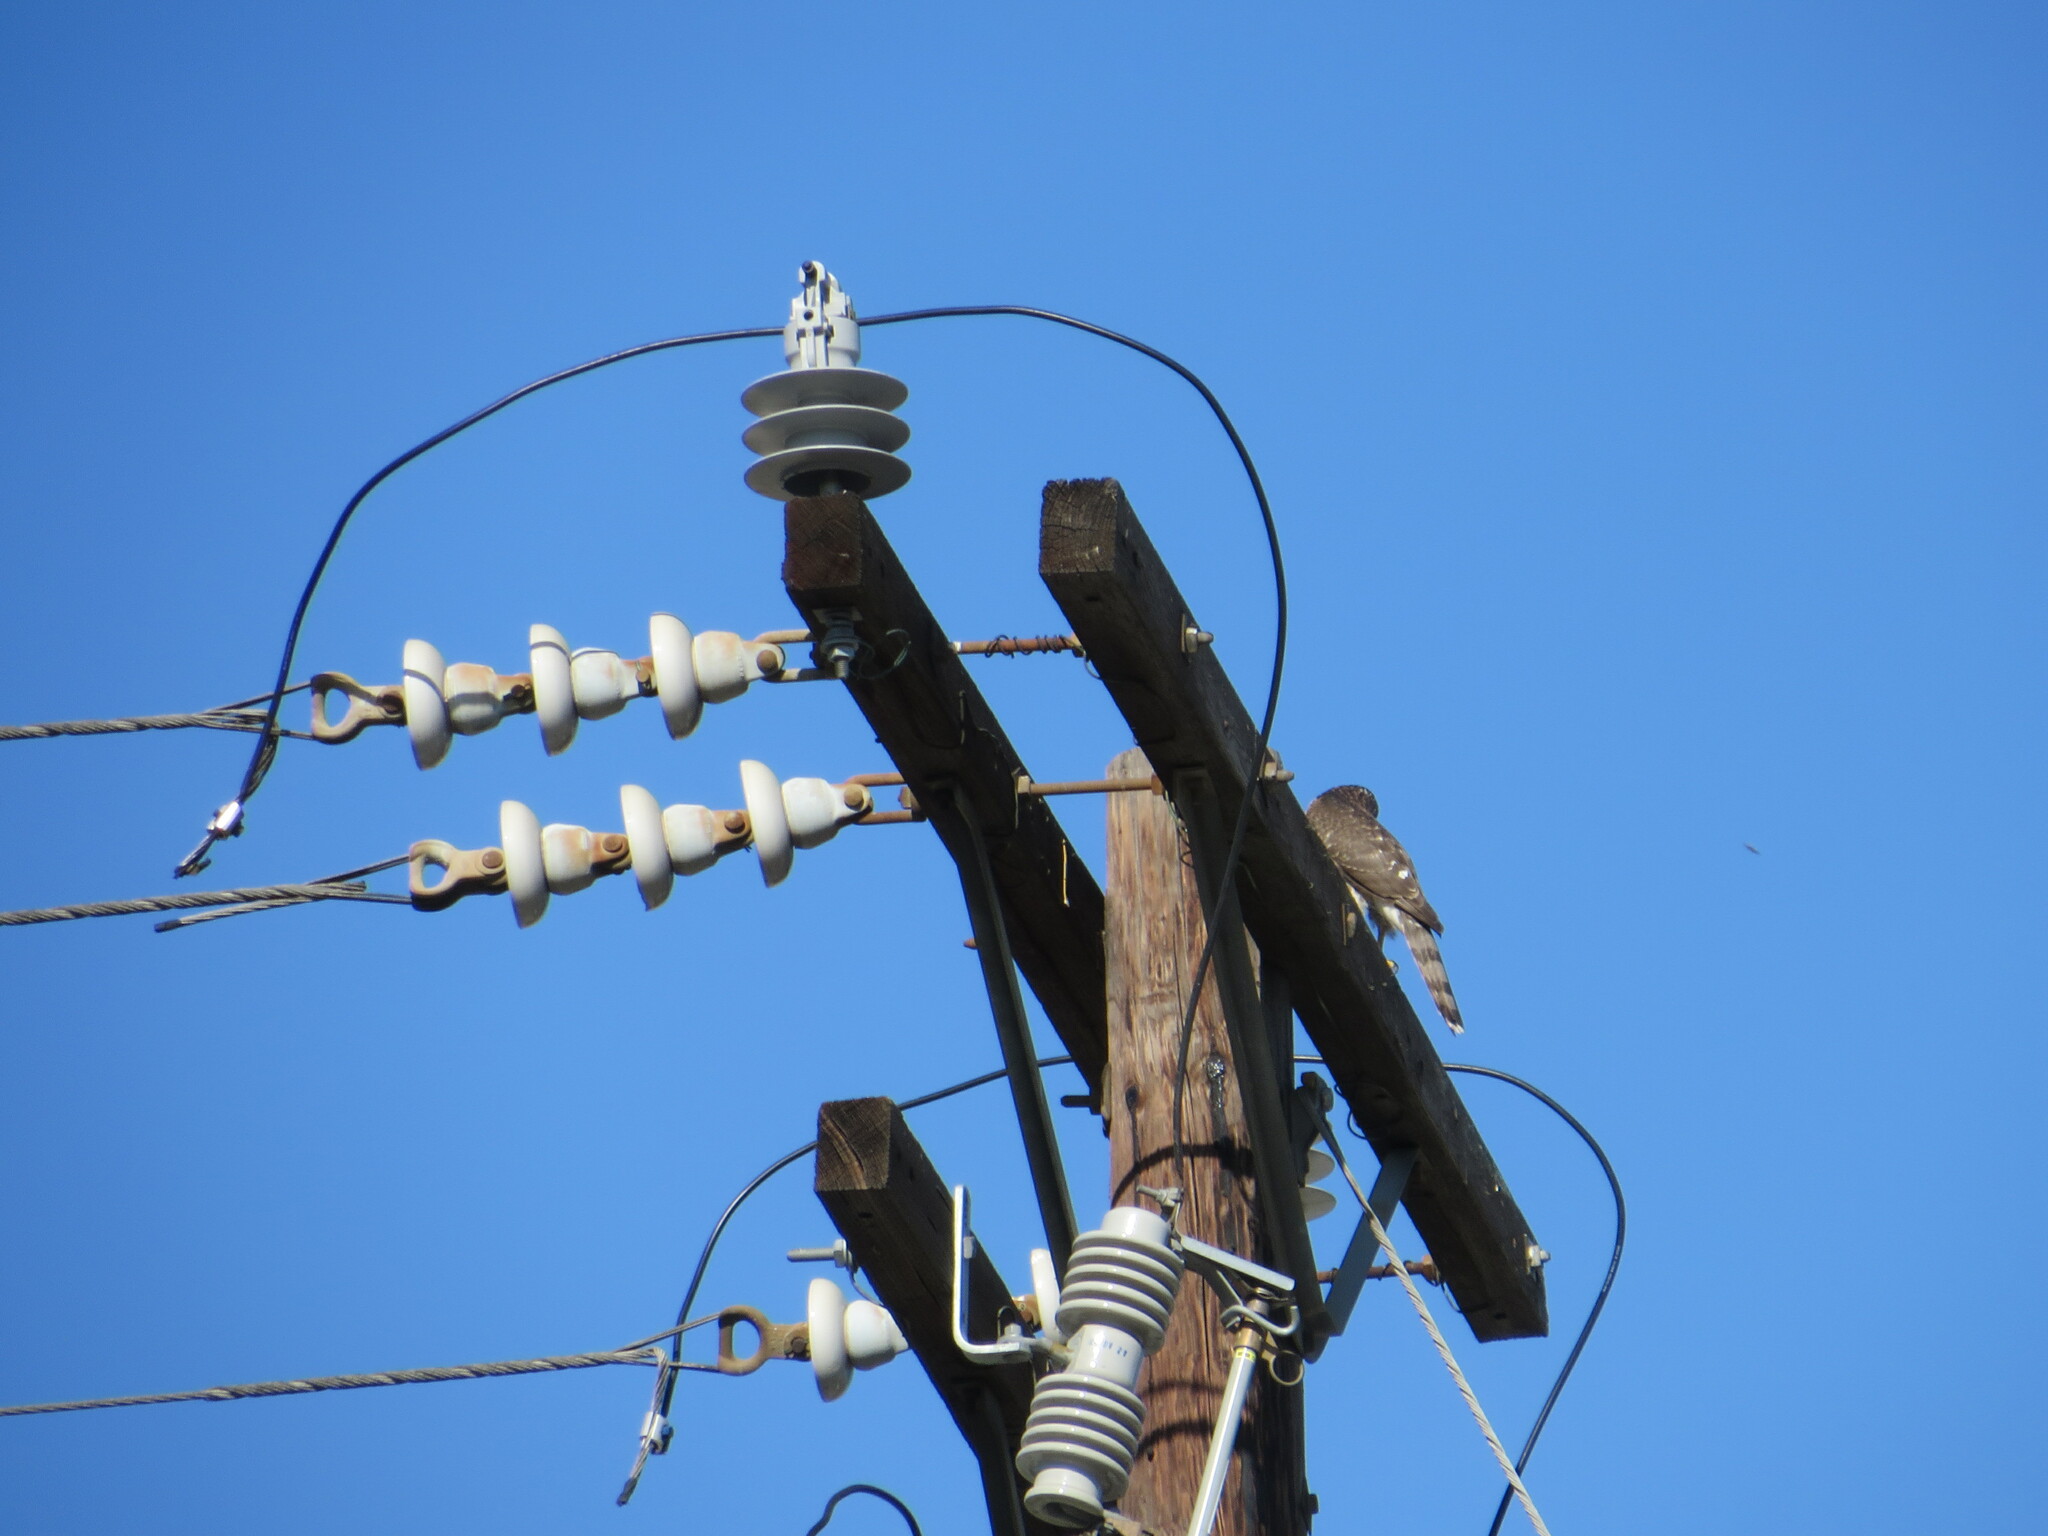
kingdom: Animalia
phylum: Chordata
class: Aves
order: Accipitriformes
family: Accipitridae
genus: Accipiter
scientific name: Accipiter cooperii
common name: Cooper's hawk
